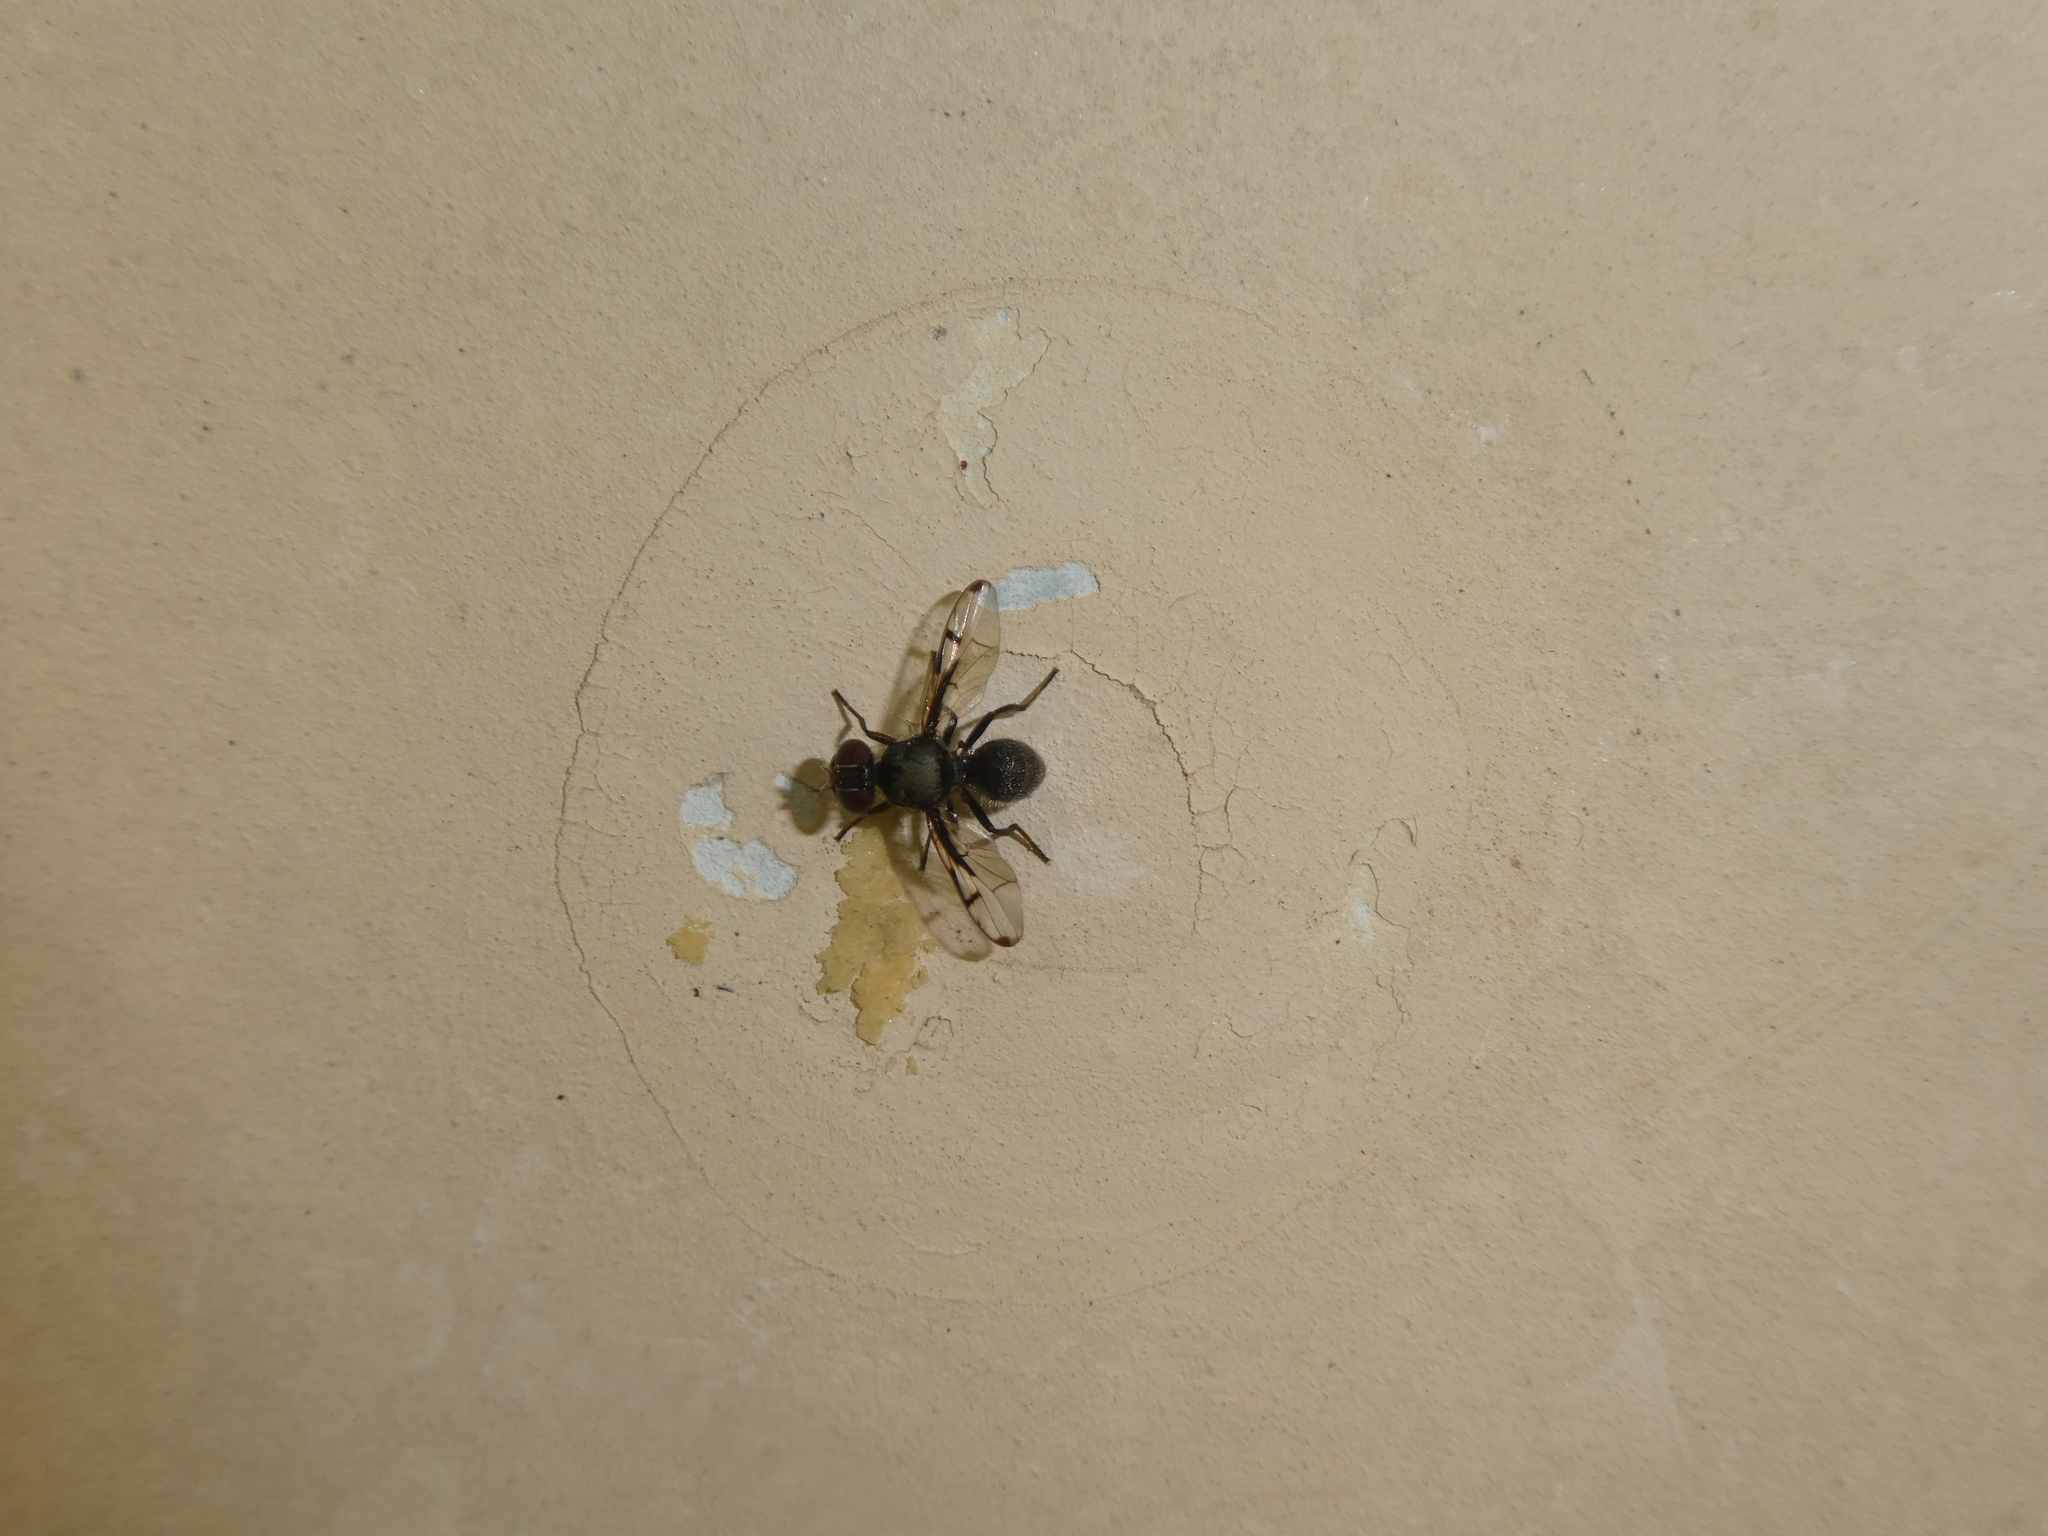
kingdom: Animalia
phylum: Arthropoda
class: Insecta
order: Diptera
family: Platystomatidae
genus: Pogonortalis
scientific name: Pogonortalis doclea
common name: Boatman fly
